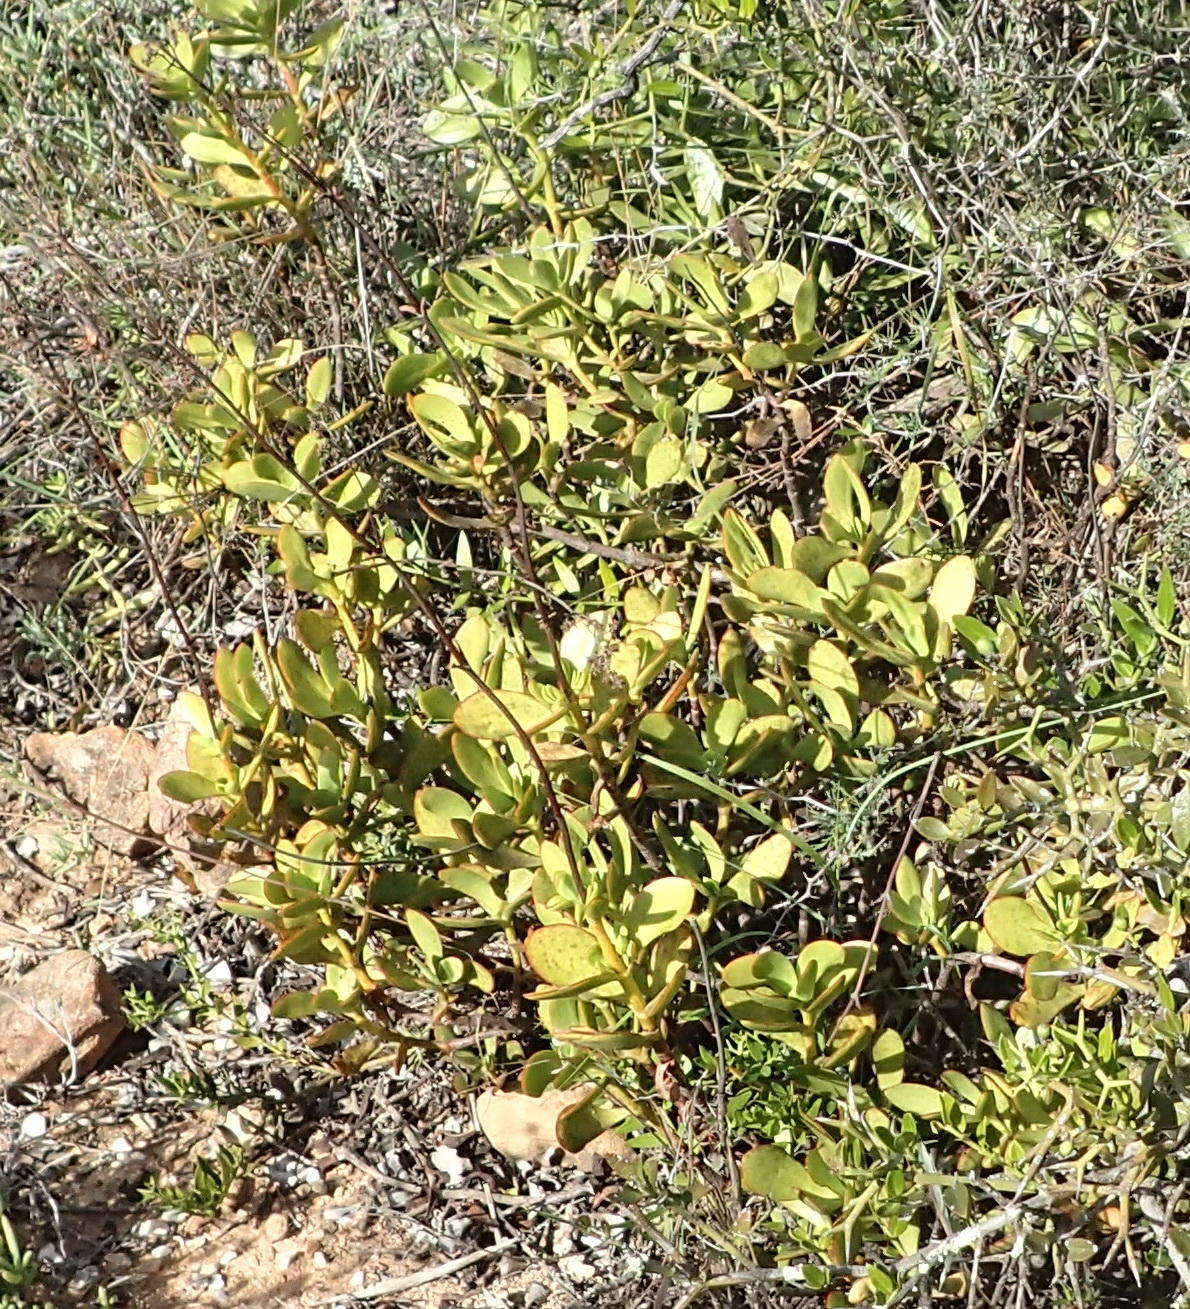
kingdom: Plantae
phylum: Tracheophyta
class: Magnoliopsida
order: Saxifragales
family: Crassulaceae
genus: Crassula
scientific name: Crassula cultrata
